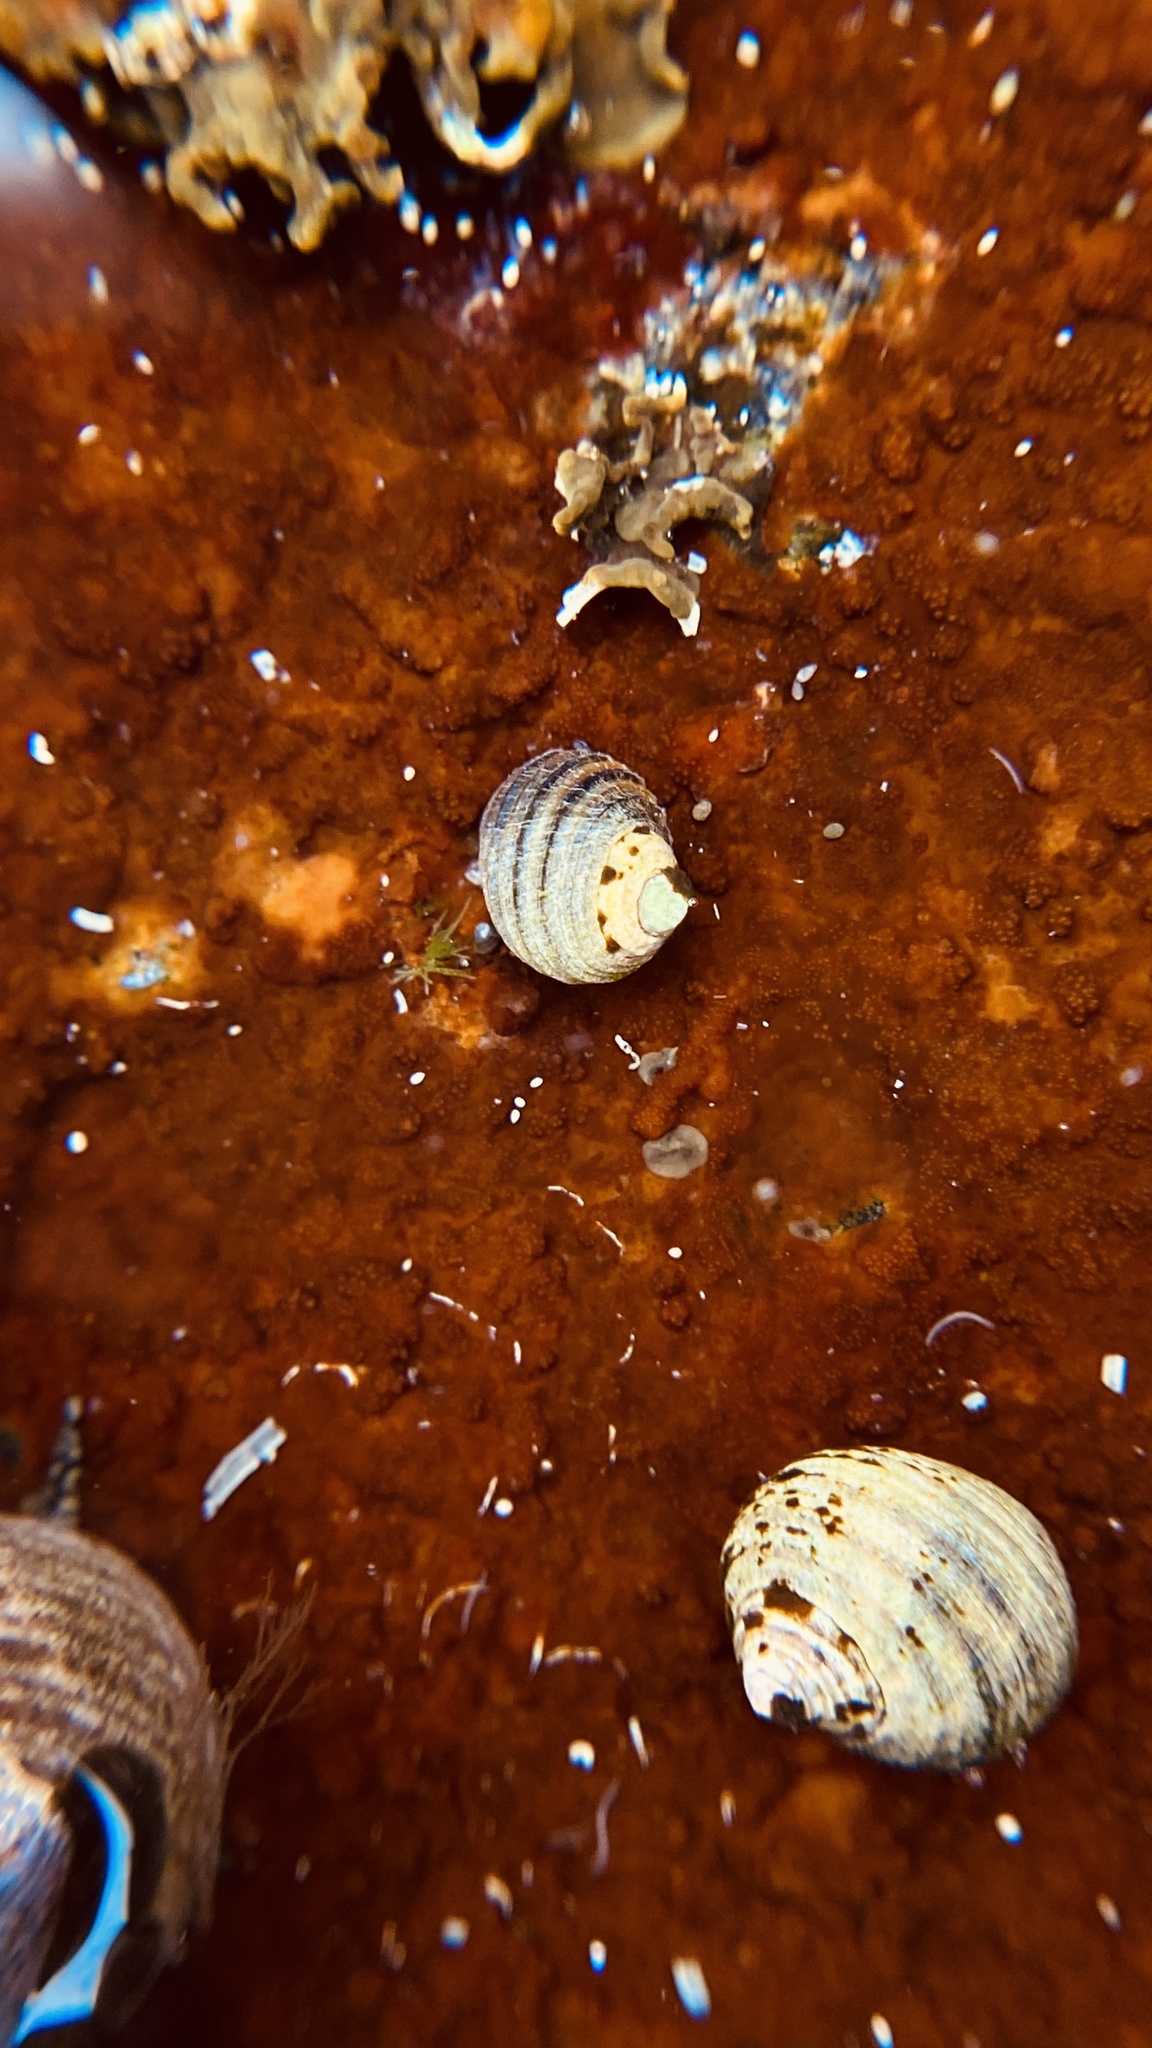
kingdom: Animalia
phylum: Mollusca
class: Gastropoda
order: Littorinimorpha
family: Littorinidae
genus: Littorina
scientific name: Littorina littorea
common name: Common periwinkle
